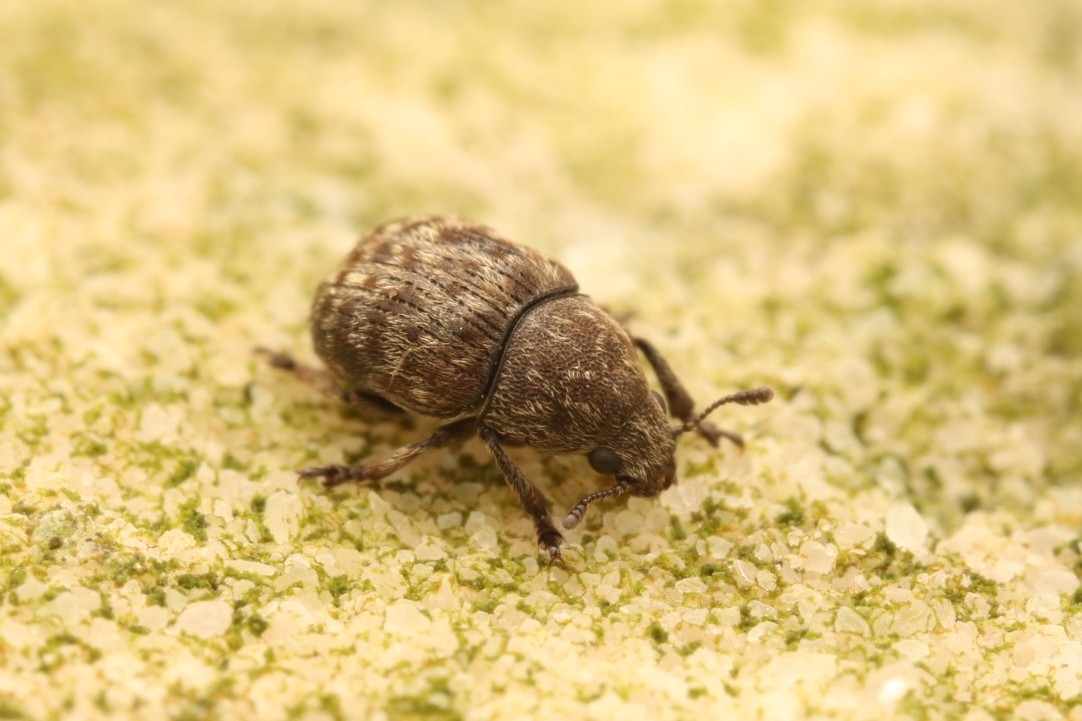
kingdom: Animalia
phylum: Arthropoda
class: Insecta
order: Coleoptera
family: Anthribidae
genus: Anthribus
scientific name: Anthribus nebulosus
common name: Fungus weevil
